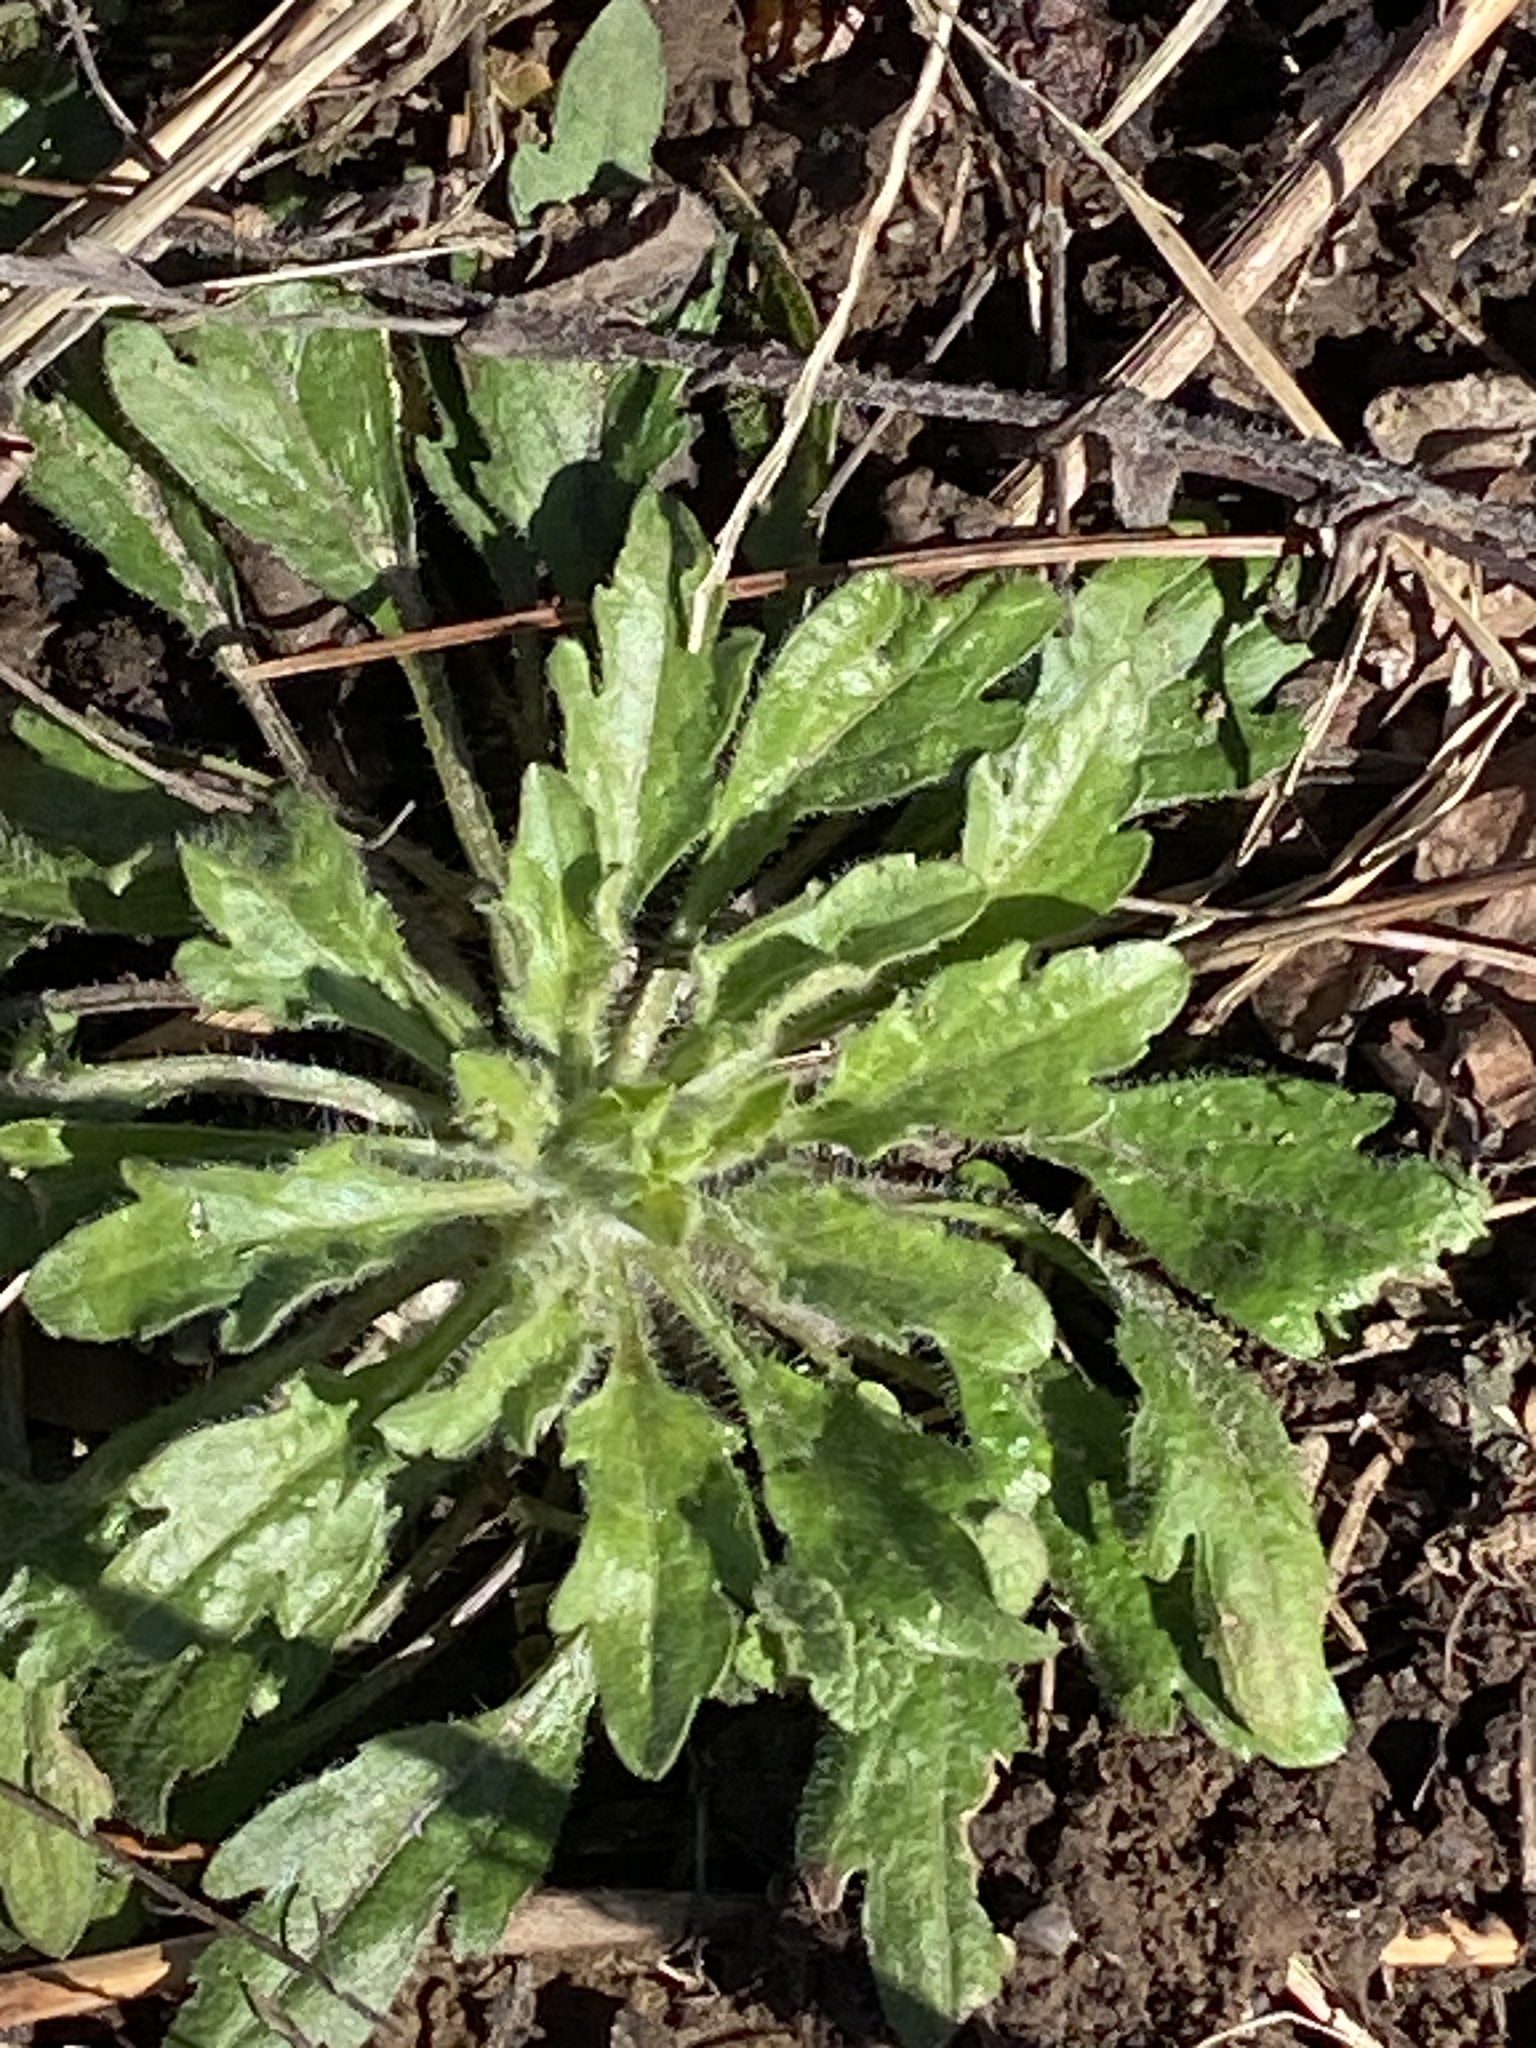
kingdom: Plantae
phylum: Tracheophyta
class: Magnoliopsida
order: Asterales
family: Asteraceae
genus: Erigeron
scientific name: Erigeron canadensis
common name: Canadian fleabane
